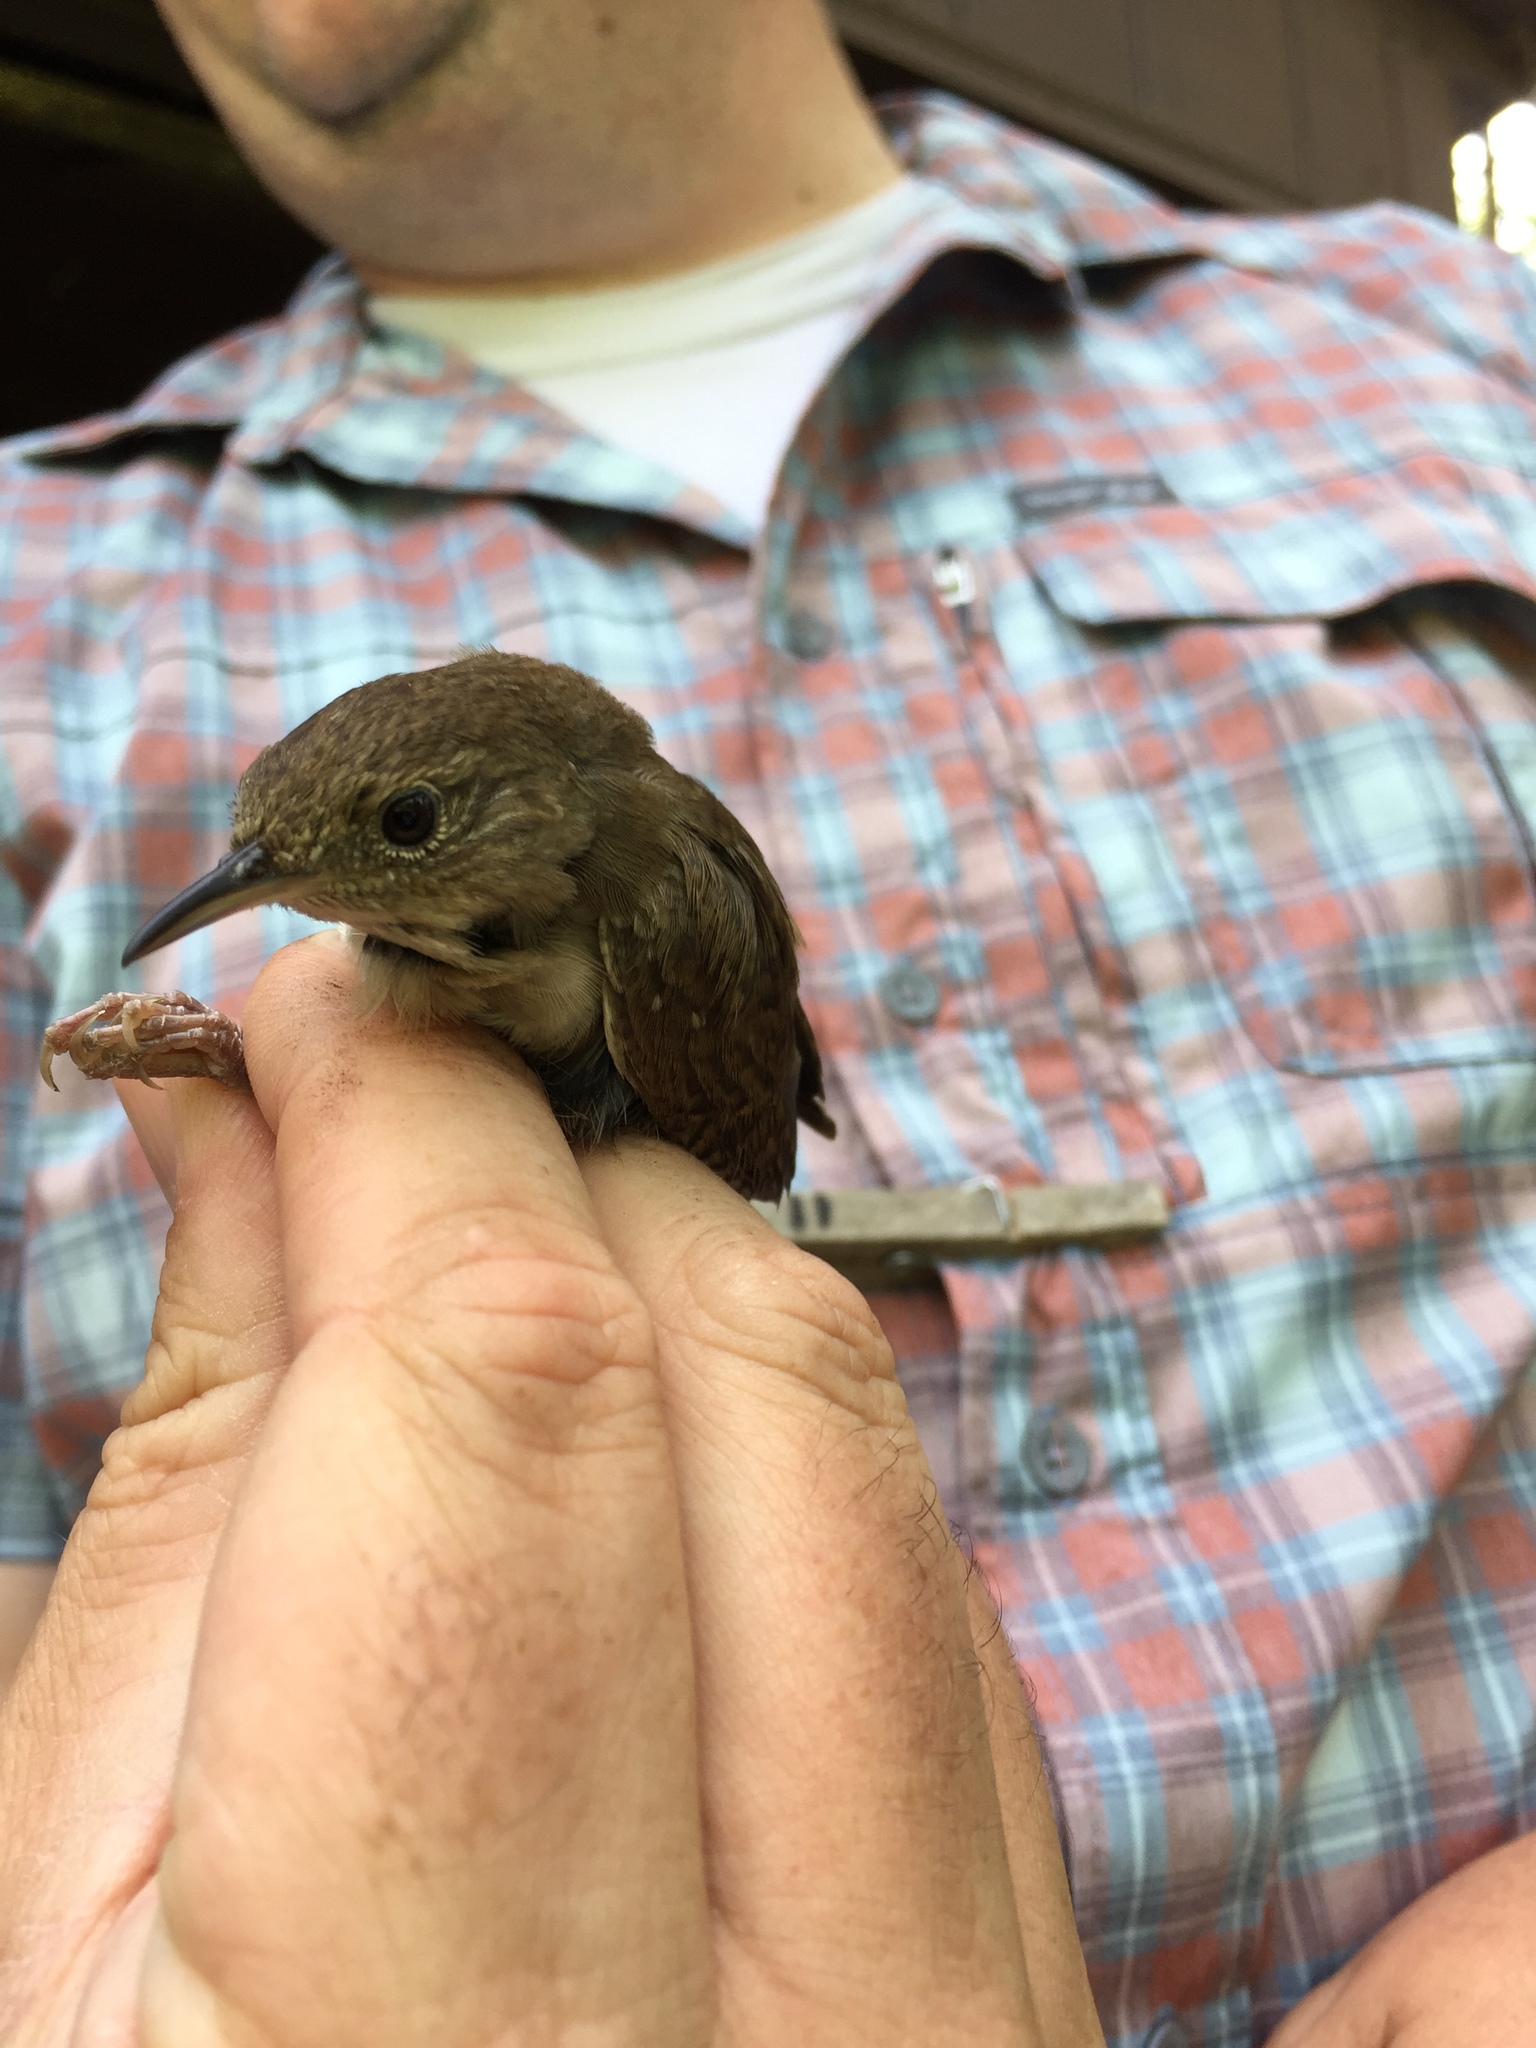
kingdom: Animalia
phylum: Chordata
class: Aves
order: Passeriformes
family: Troglodytidae
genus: Troglodytes
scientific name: Troglodytes aedon
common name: House wren
